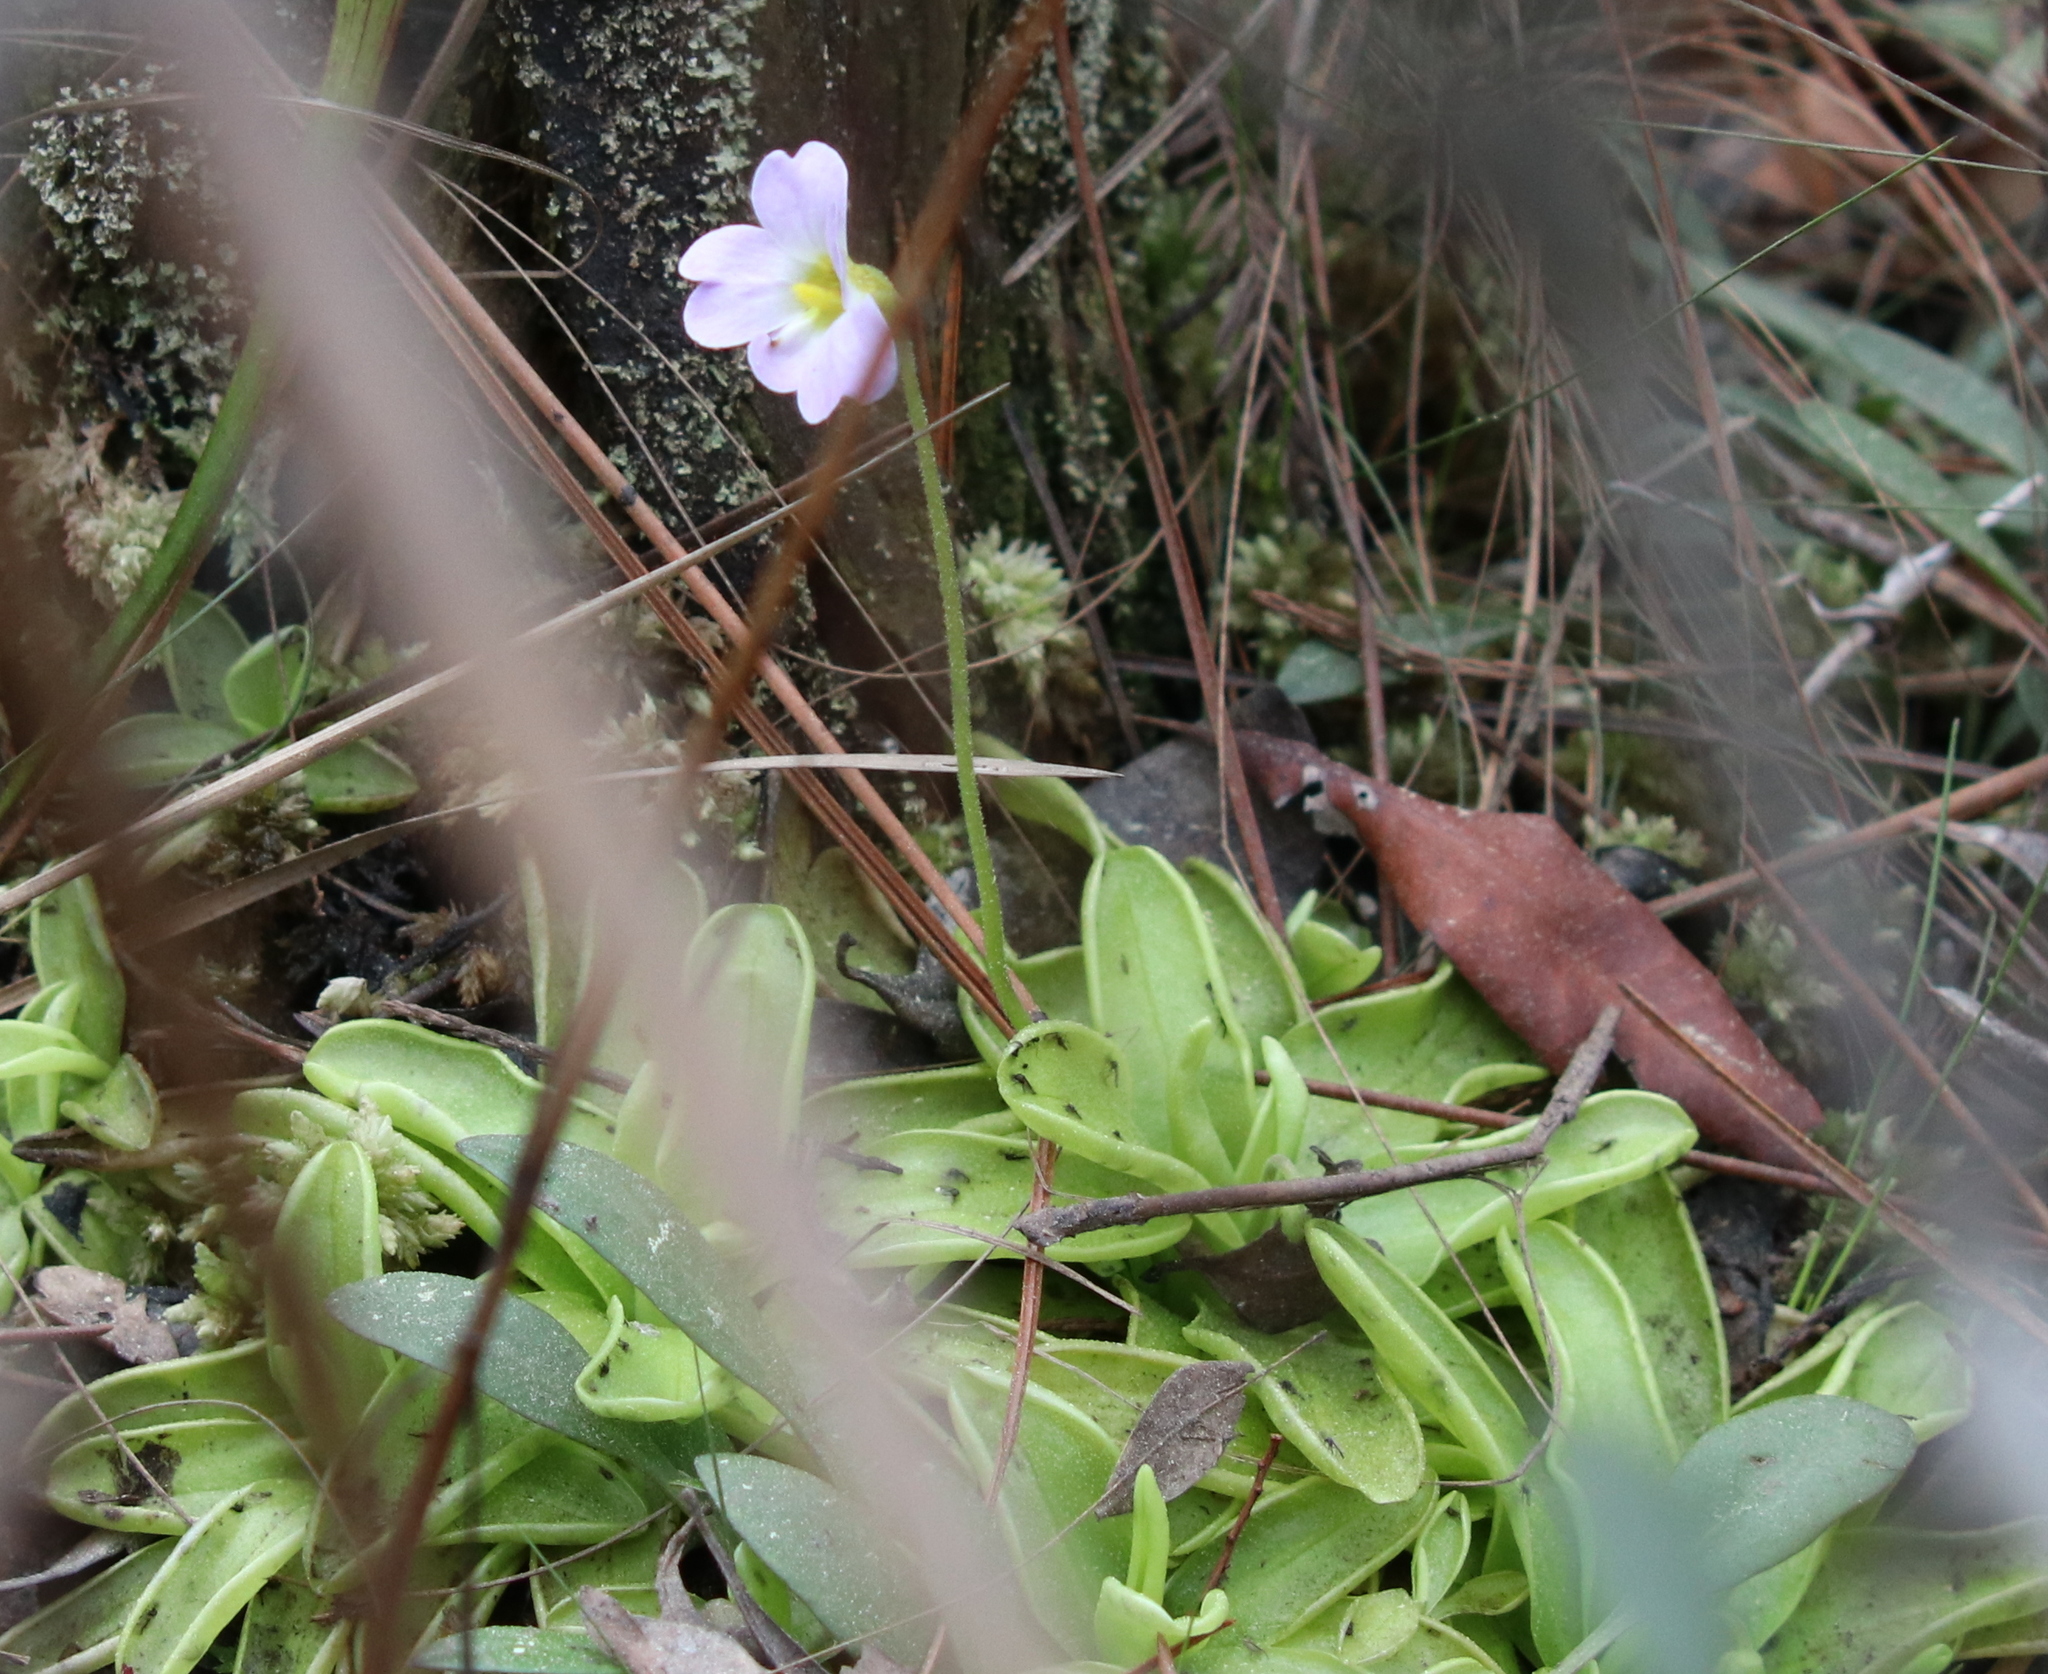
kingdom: Plantae
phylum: Tracheophyta
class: Magnoliopsida
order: Lamiales
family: Lentibulariaceae
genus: Pinguicula
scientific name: Pinguicula primuliflora
